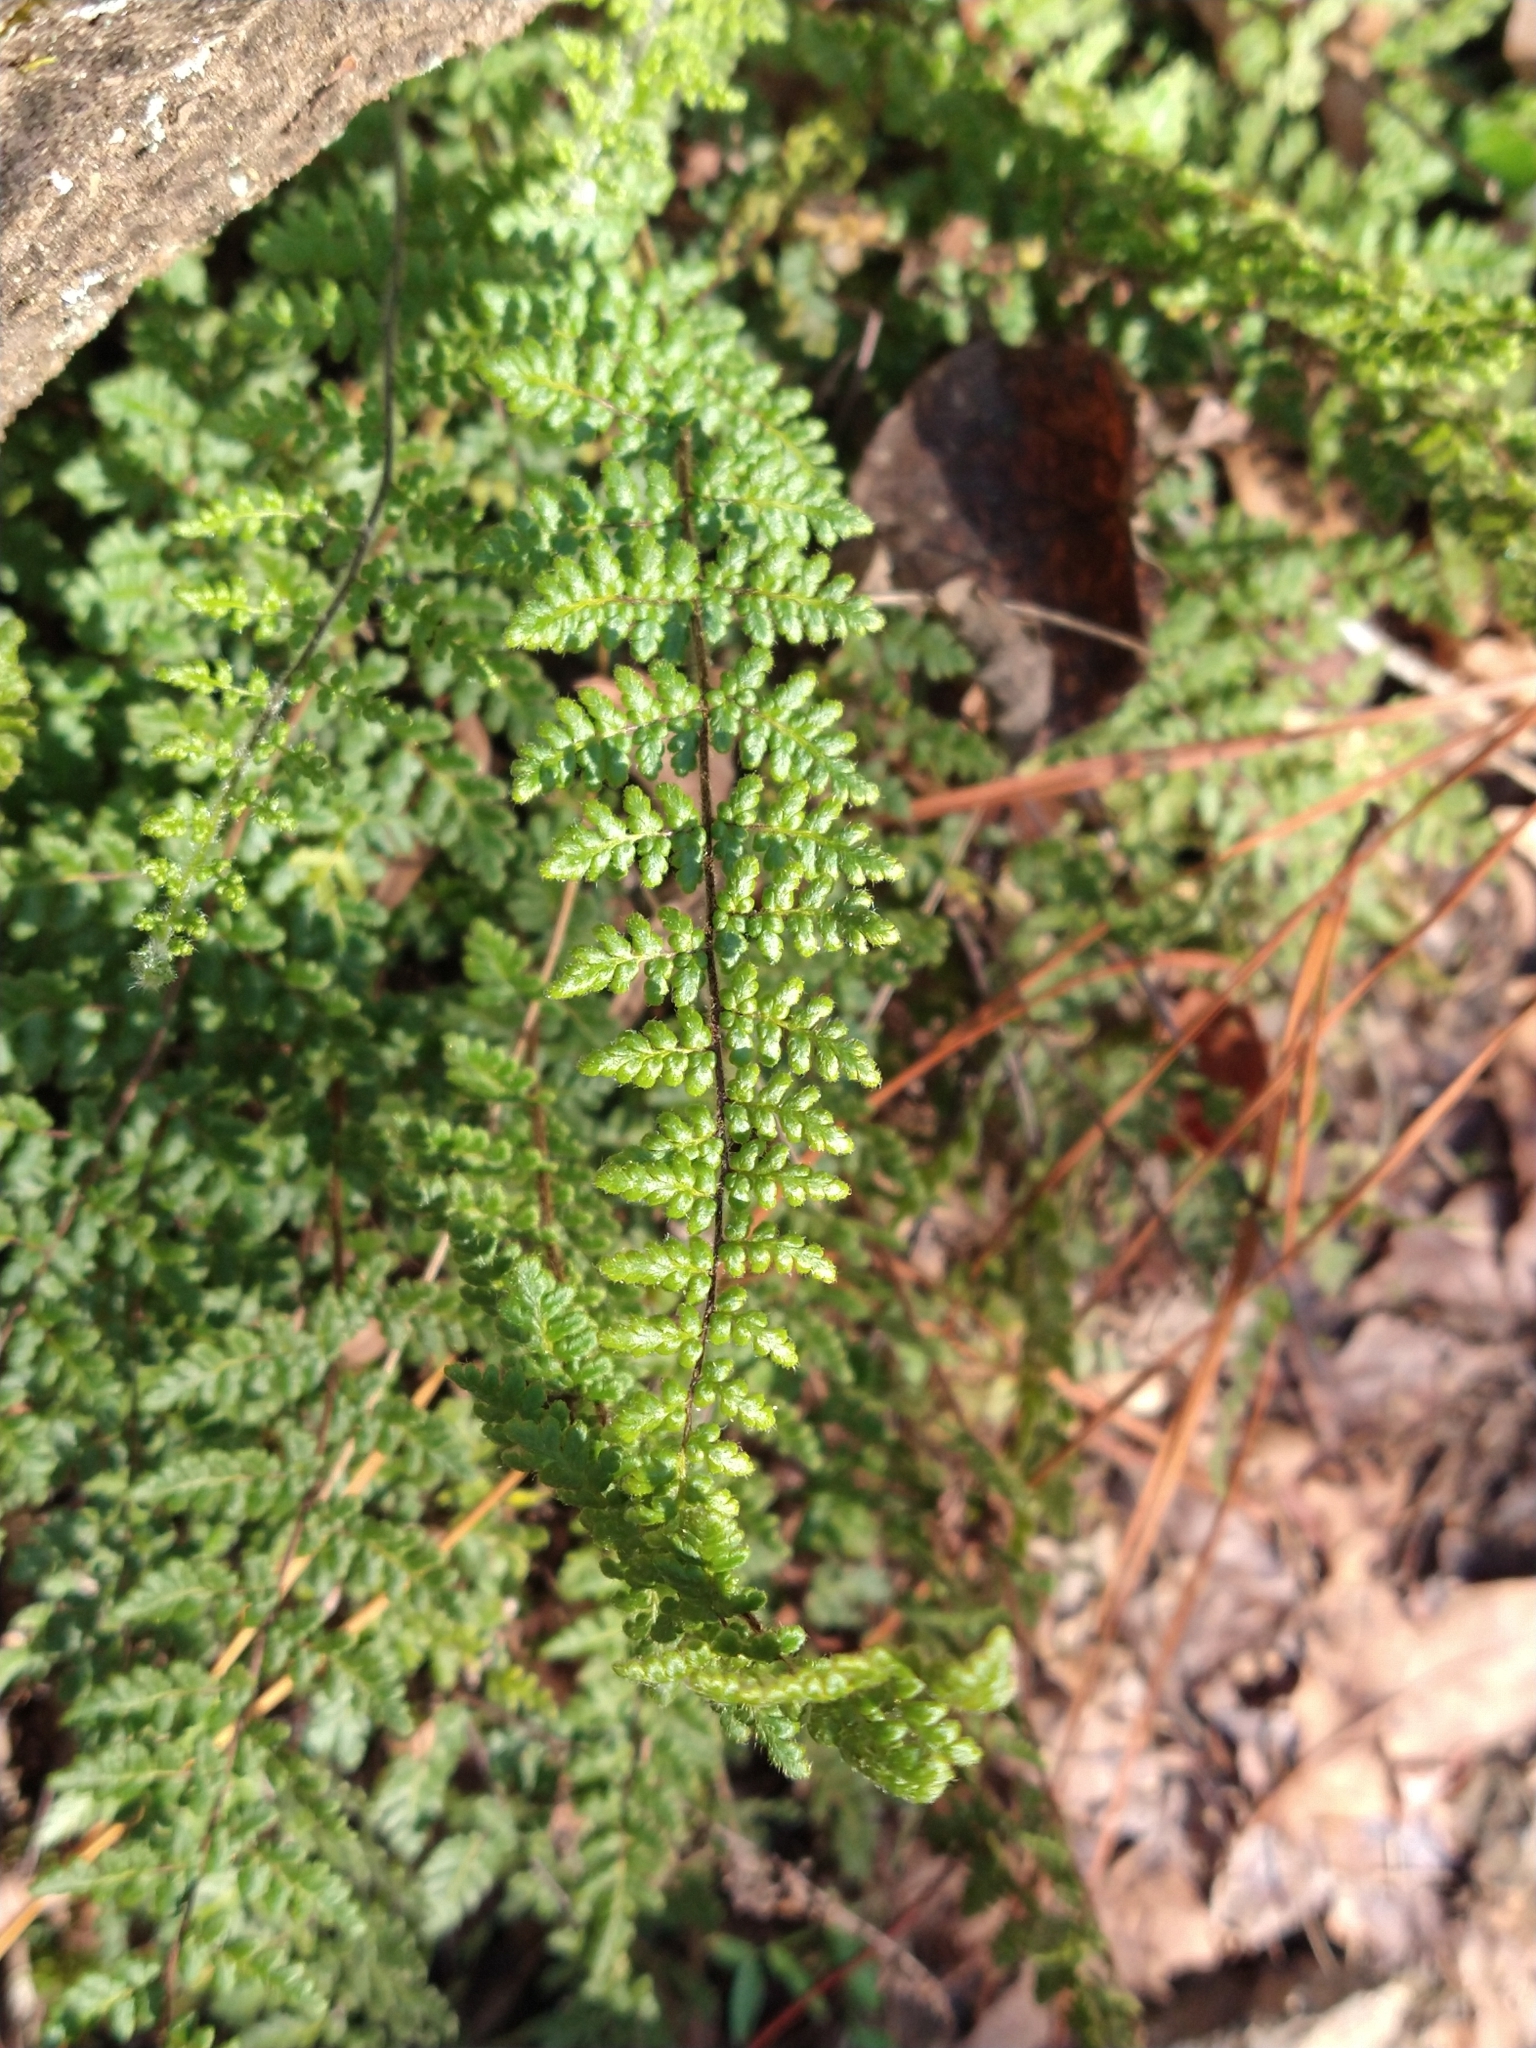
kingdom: Plantae
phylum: Tracheophyta
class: Polypodiopsida
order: Polypodiales
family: Pteridaceae
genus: Myriopteris
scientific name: Myriopteris lanosa
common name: Hairy lip fern
